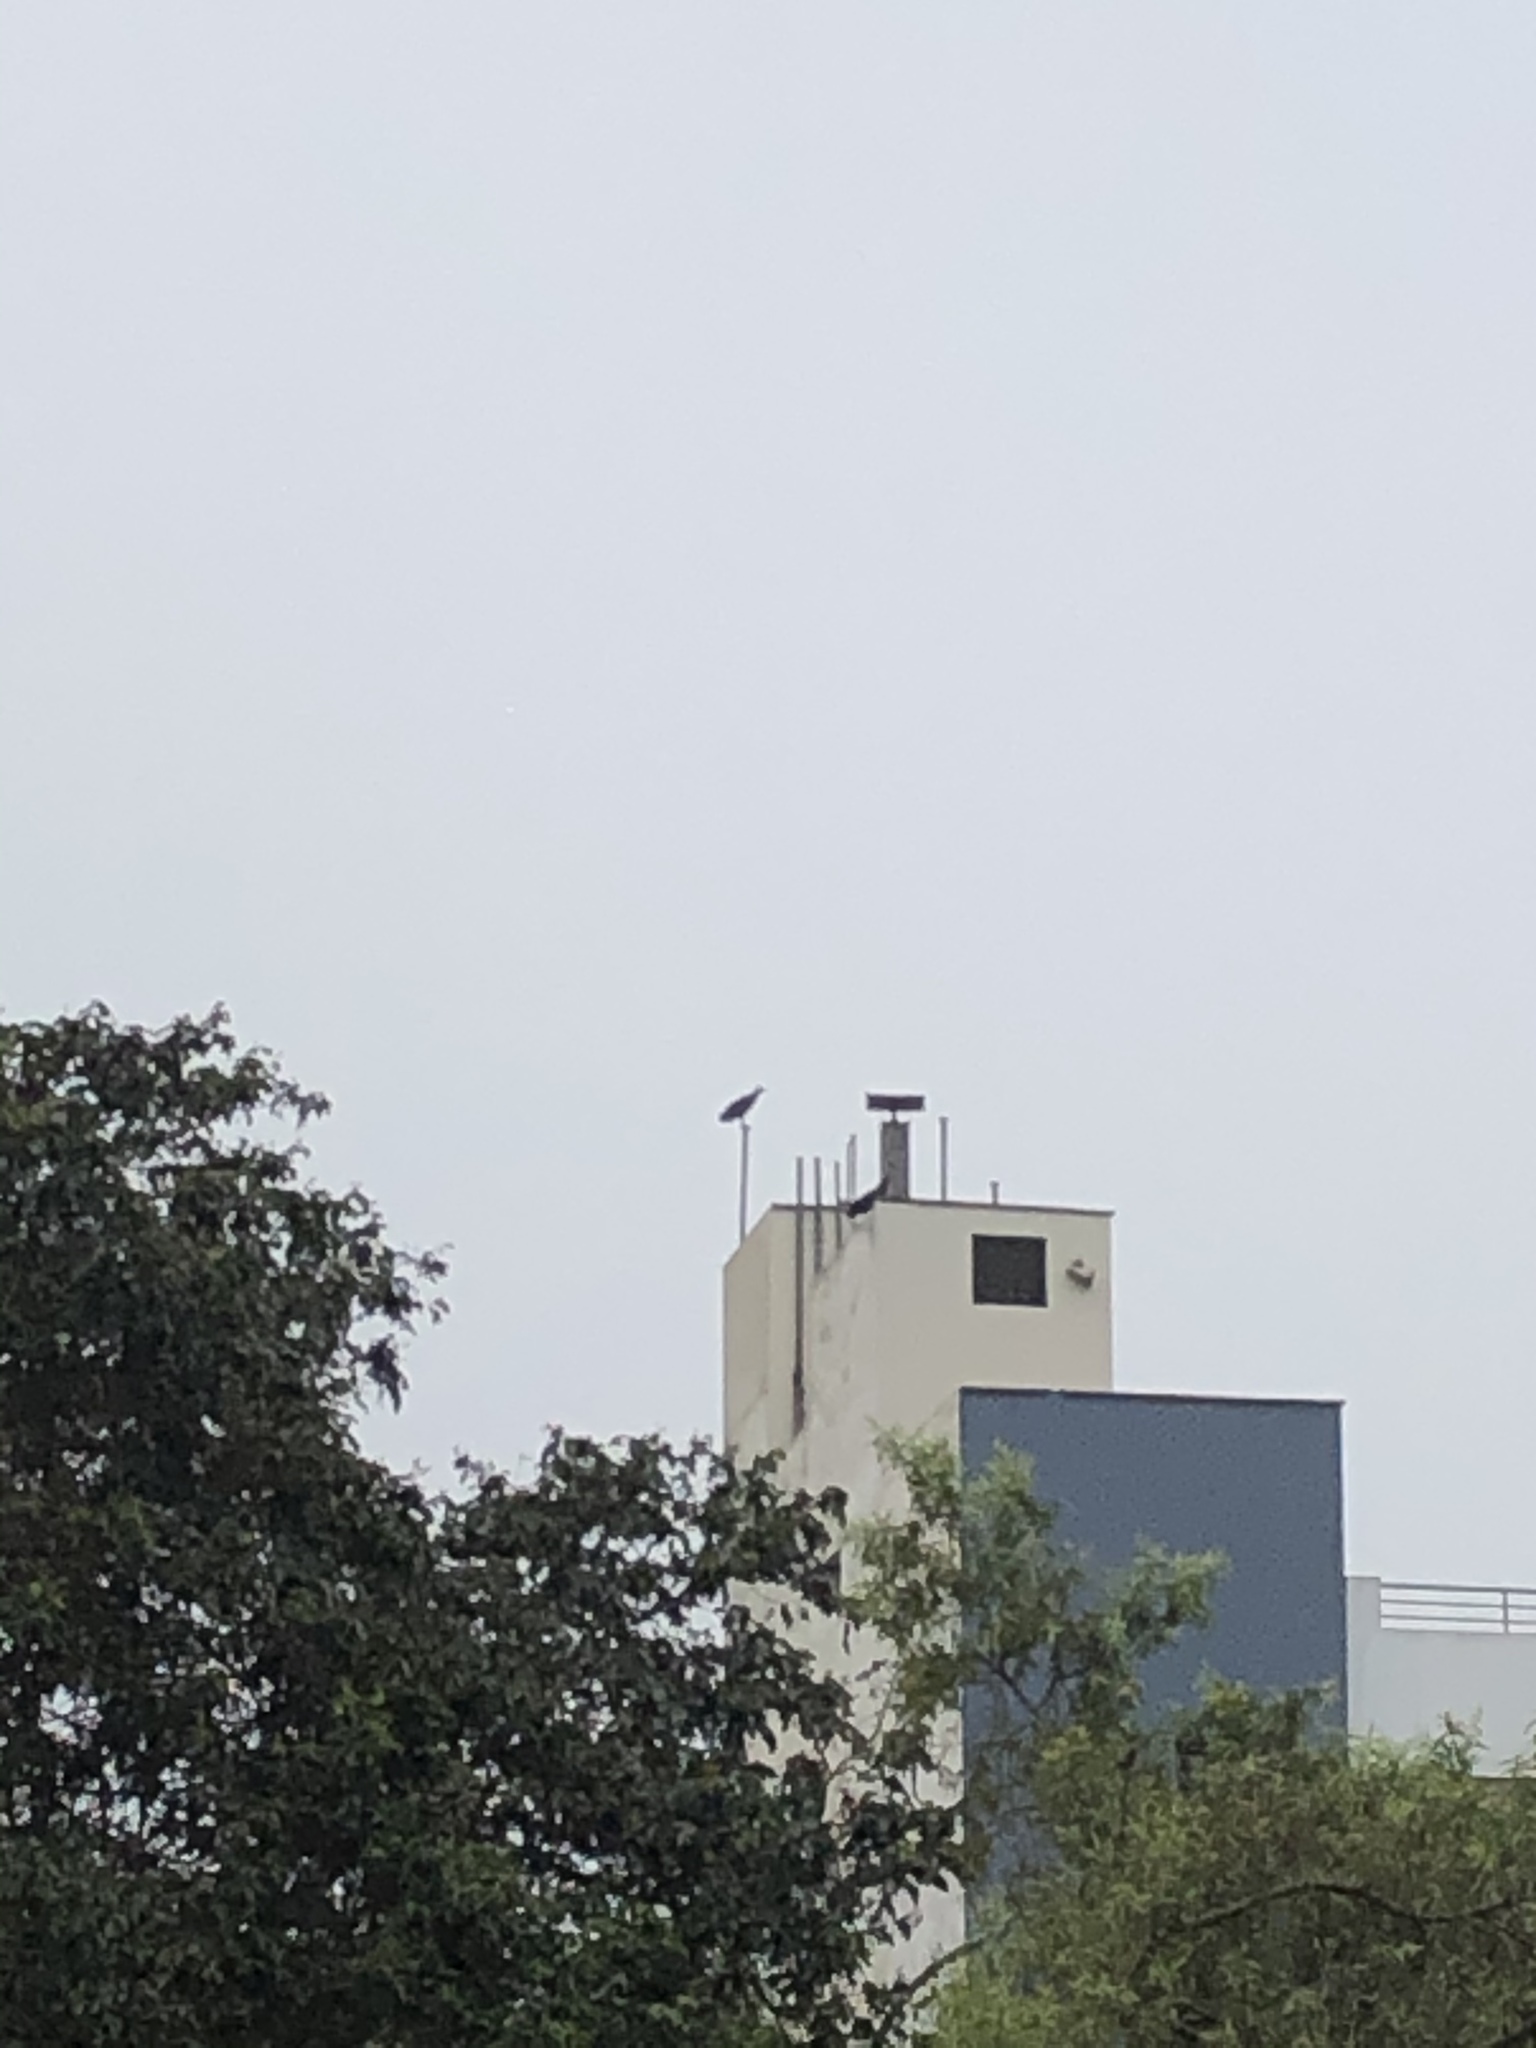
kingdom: Animalia
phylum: Chordata
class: Aves
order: Accipitriformes
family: Cathartidae
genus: Coragyps
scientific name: Coragyps atratus
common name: Black vulture
